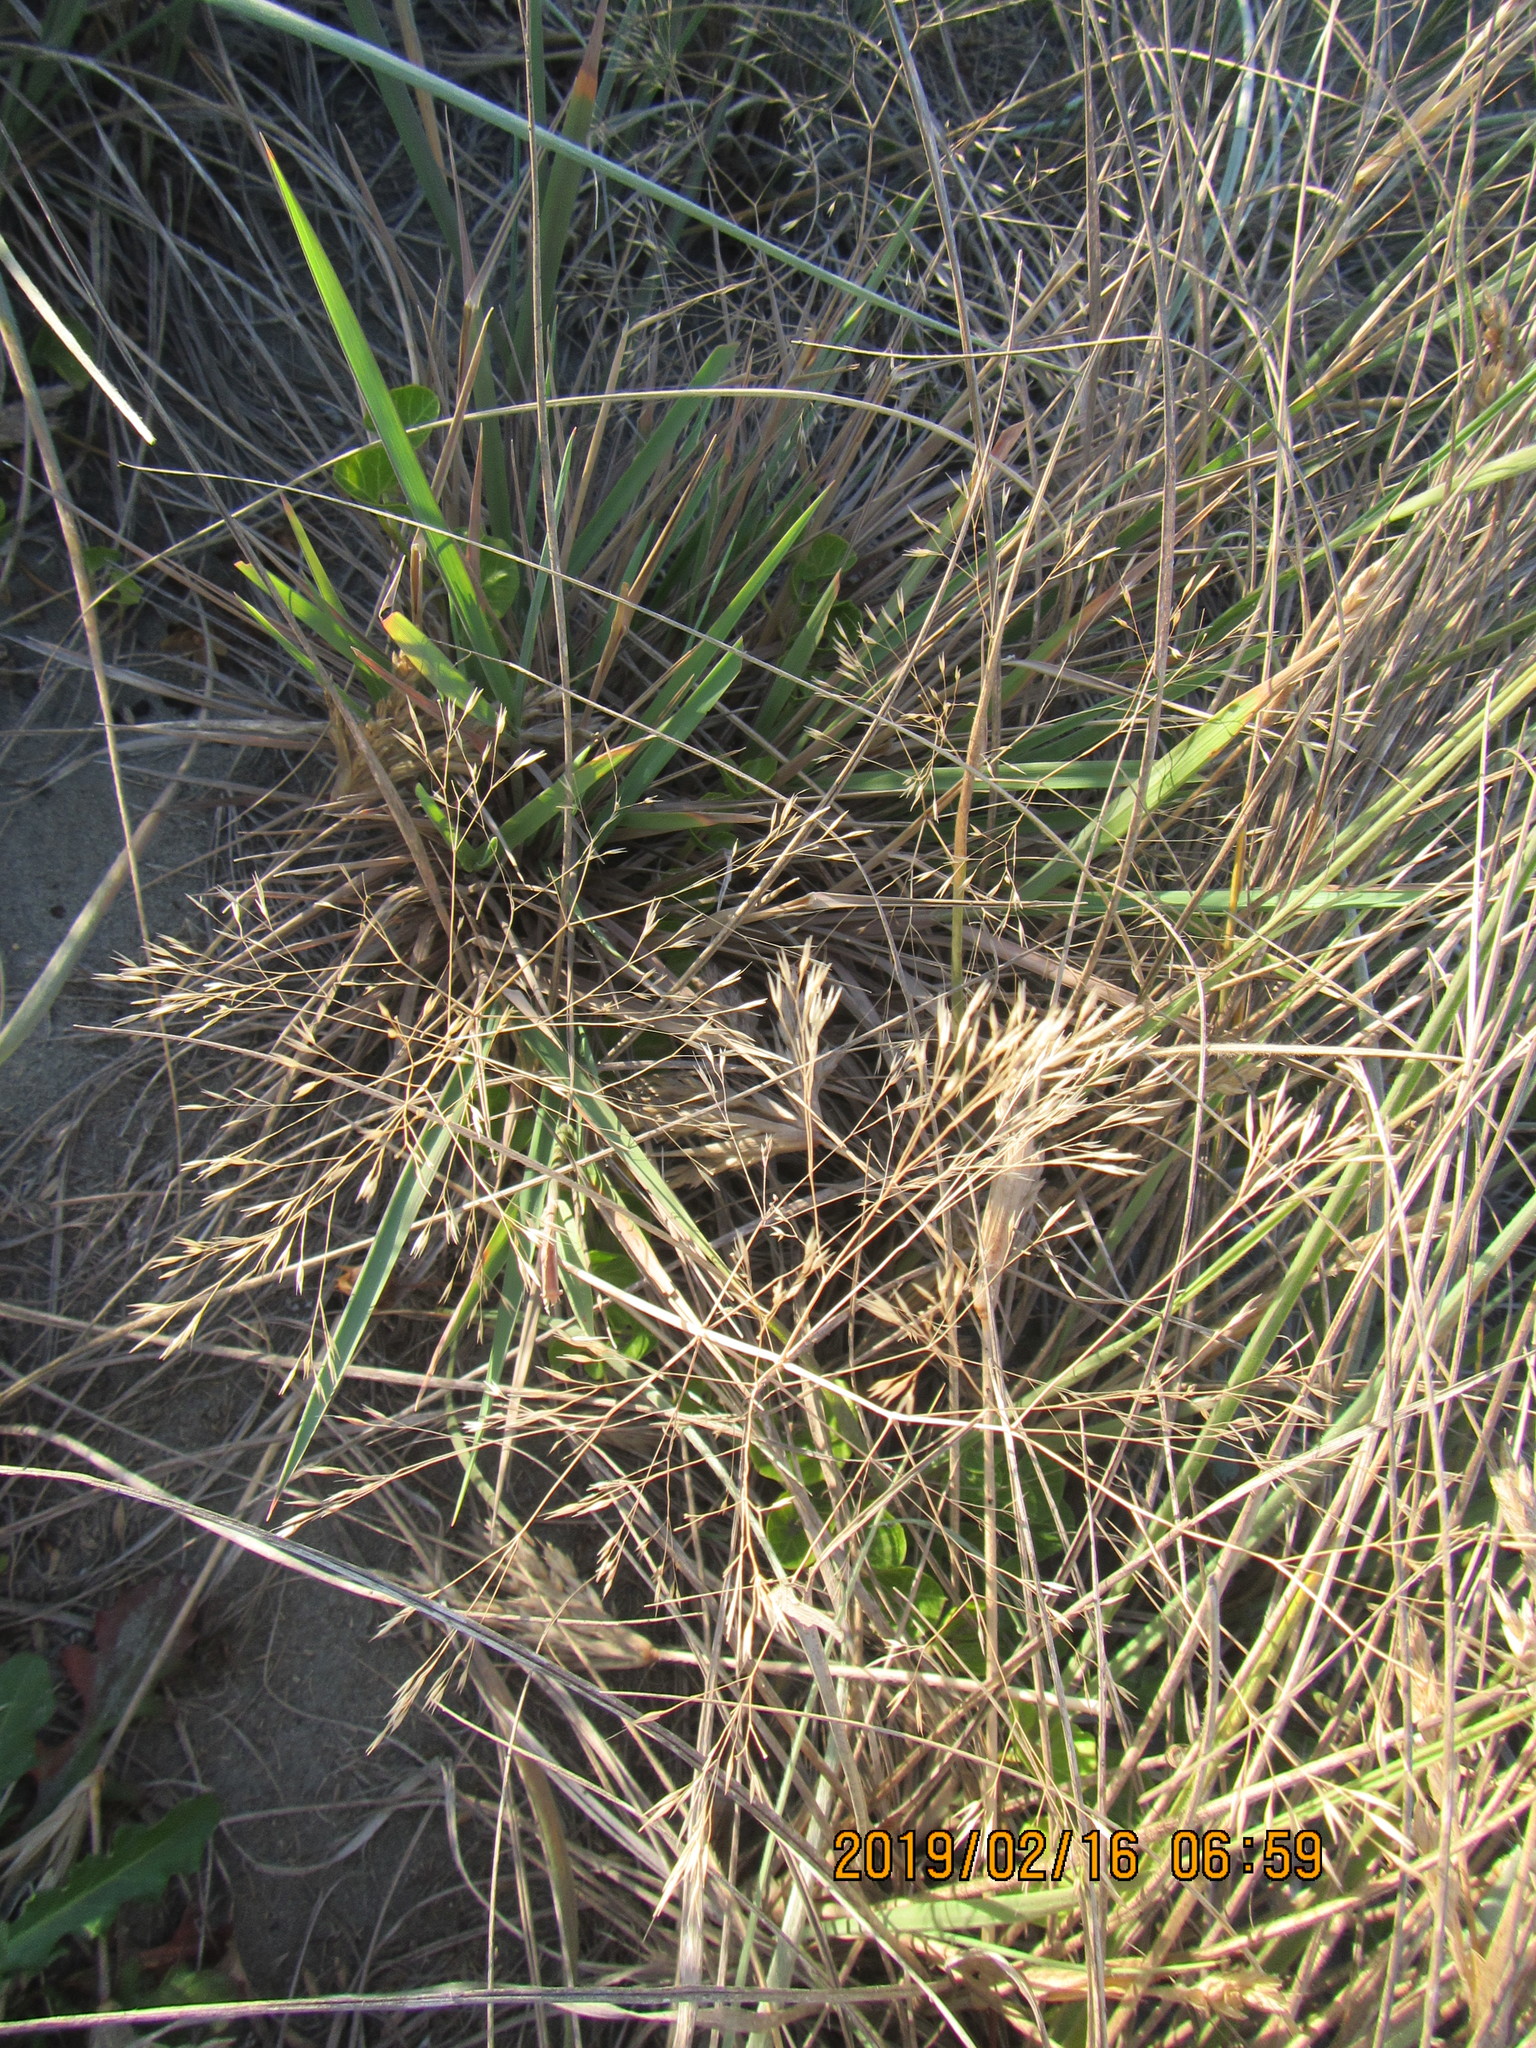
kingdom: Plantae
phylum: Tracheophyta
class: Liliopsida
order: Poales
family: Poaceae
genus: Lachnagrostis
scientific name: Lachnagrostis billardierei
